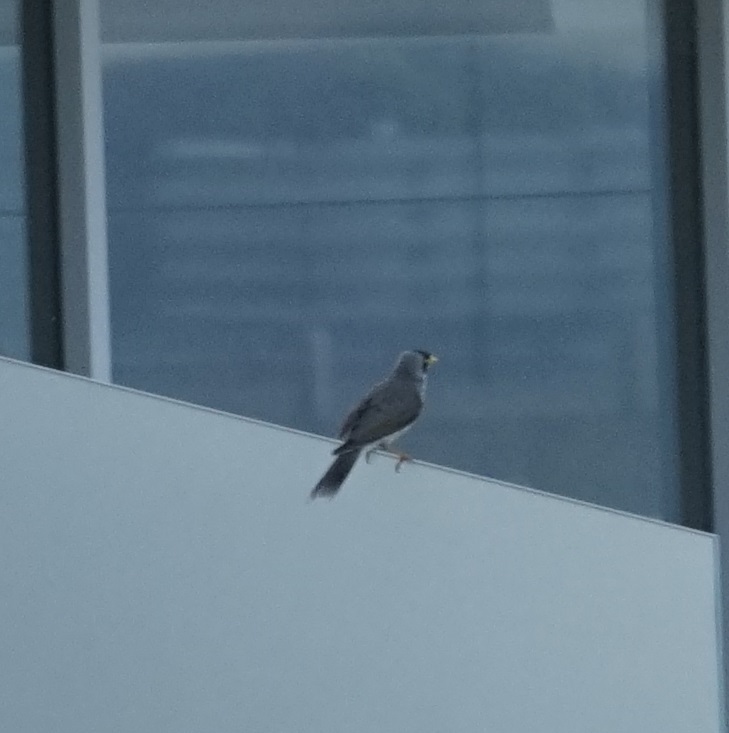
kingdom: Animalia
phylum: Chordata
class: Aves
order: Passeriformes
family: Meliphagidae
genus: Manorina
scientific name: Manorina melanocephala
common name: Noisy miner
